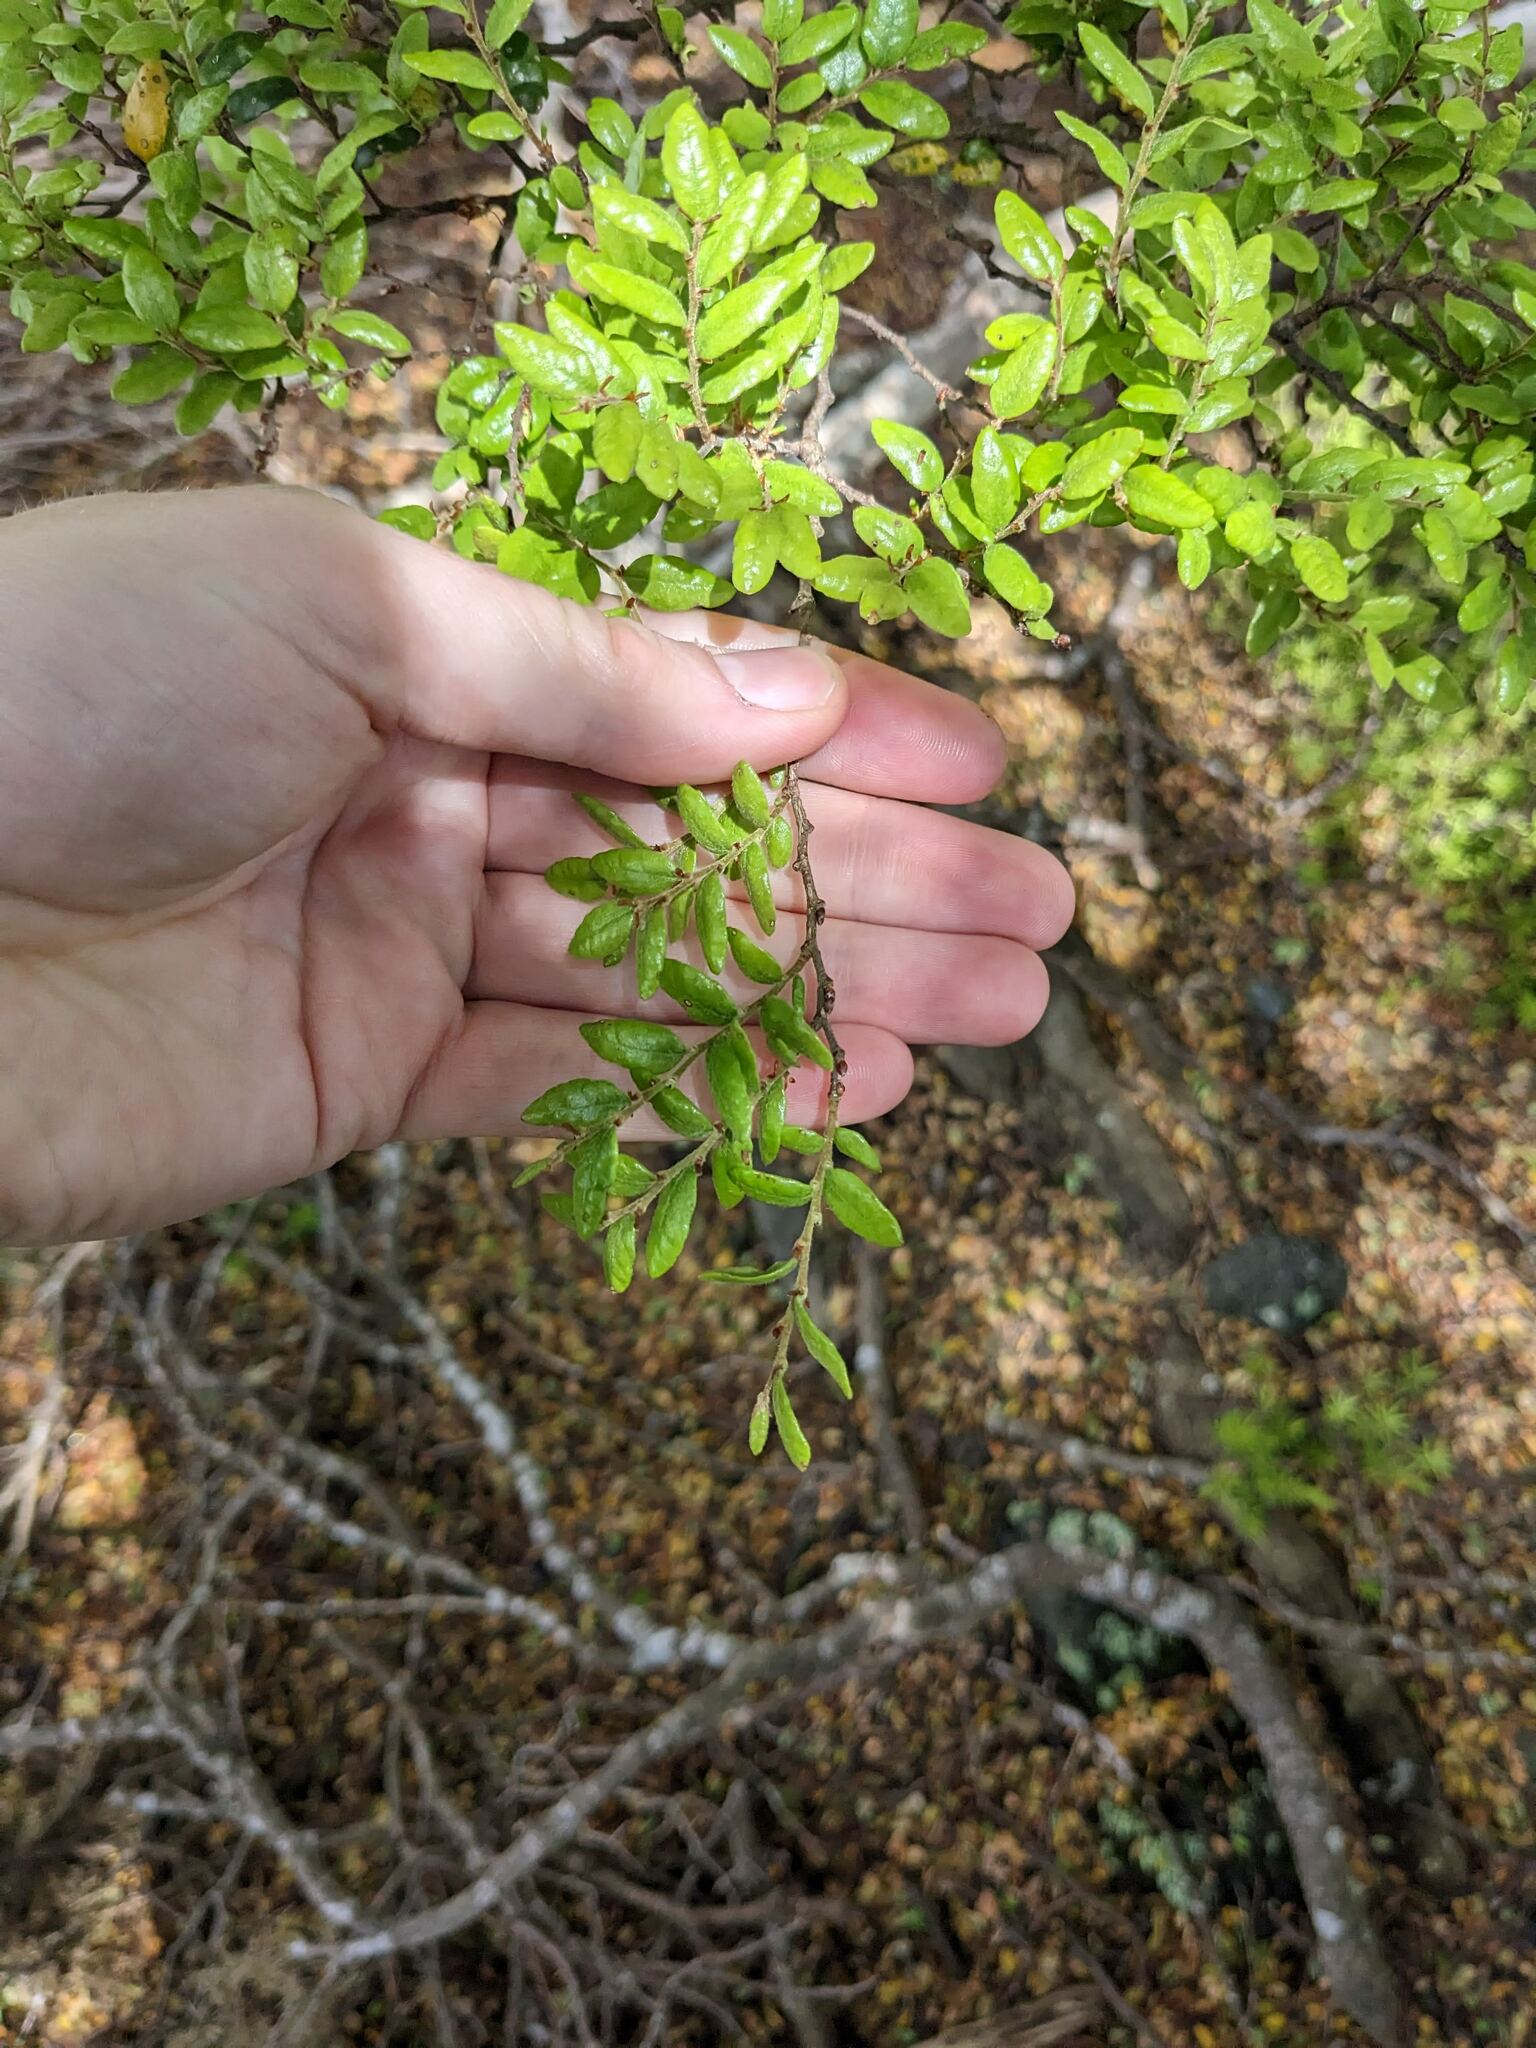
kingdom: Plantae
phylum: Tracheophyta
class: Magnoliopsida
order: Fagales
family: Nothofagaceae
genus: Nothofagus
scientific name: Nothofagus solandri
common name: Black beech
